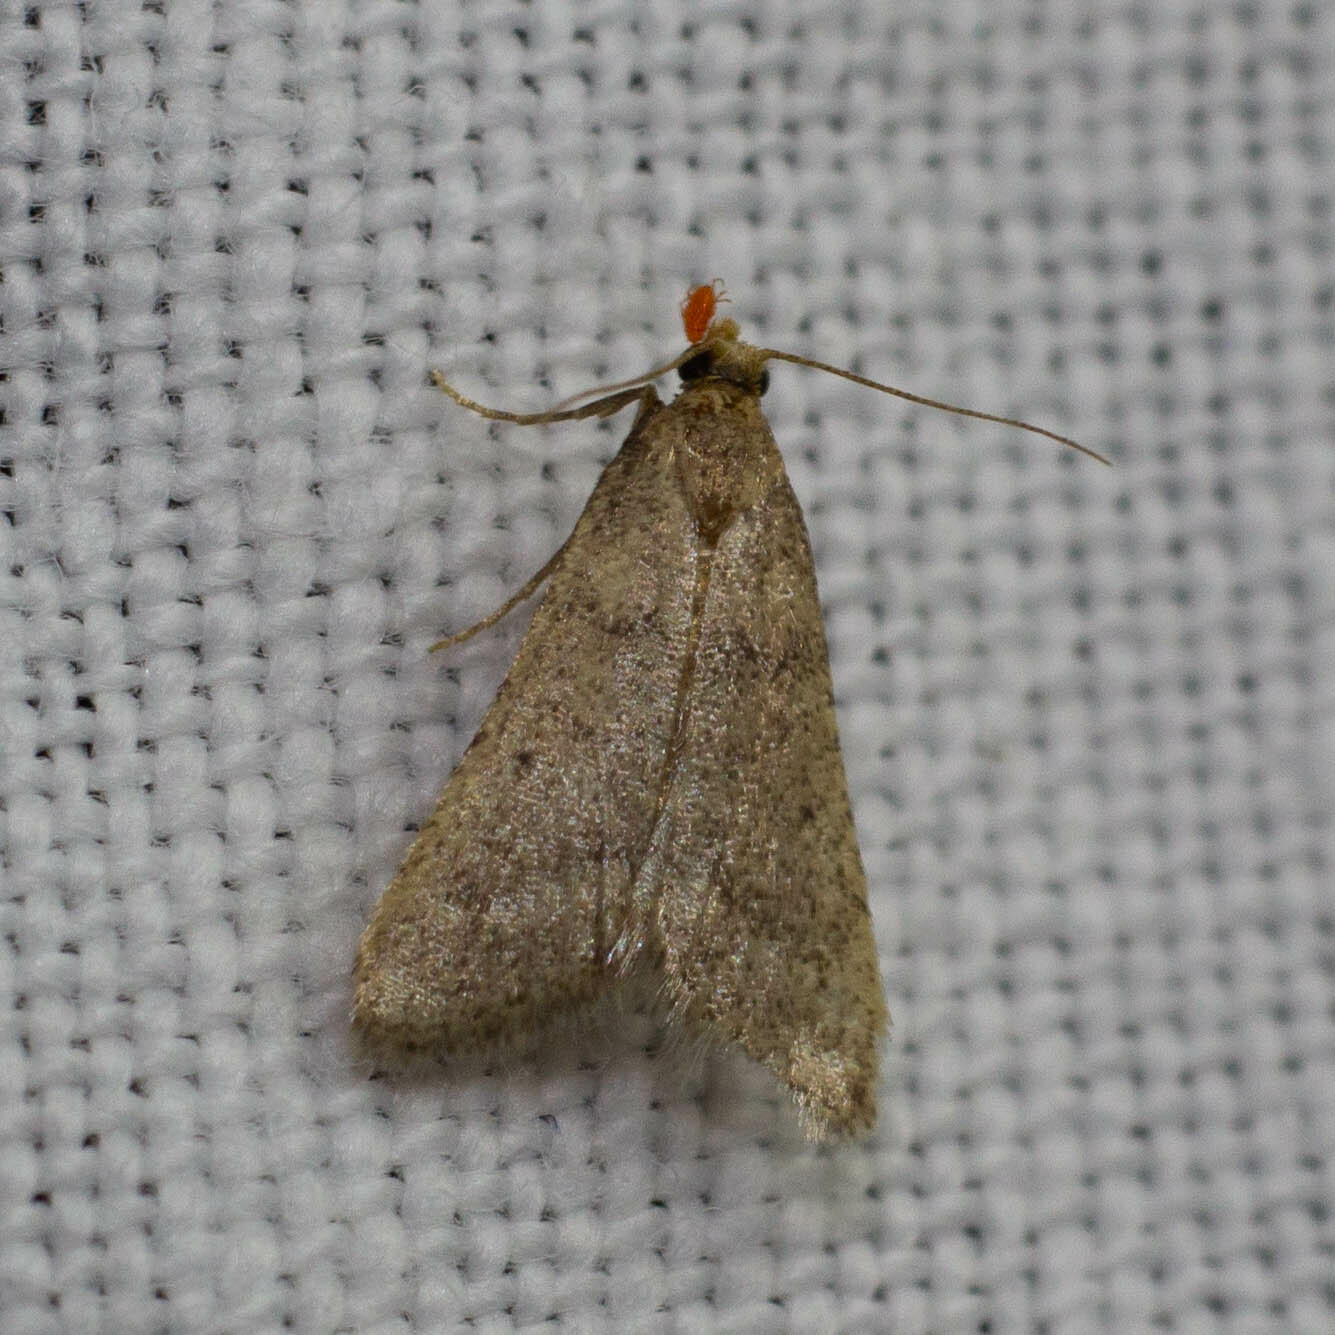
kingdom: Animalia
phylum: Arthropoda
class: Insecta
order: Lepidoptera
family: Pyralidae
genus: Bostra
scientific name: Bostra obsoletalis
